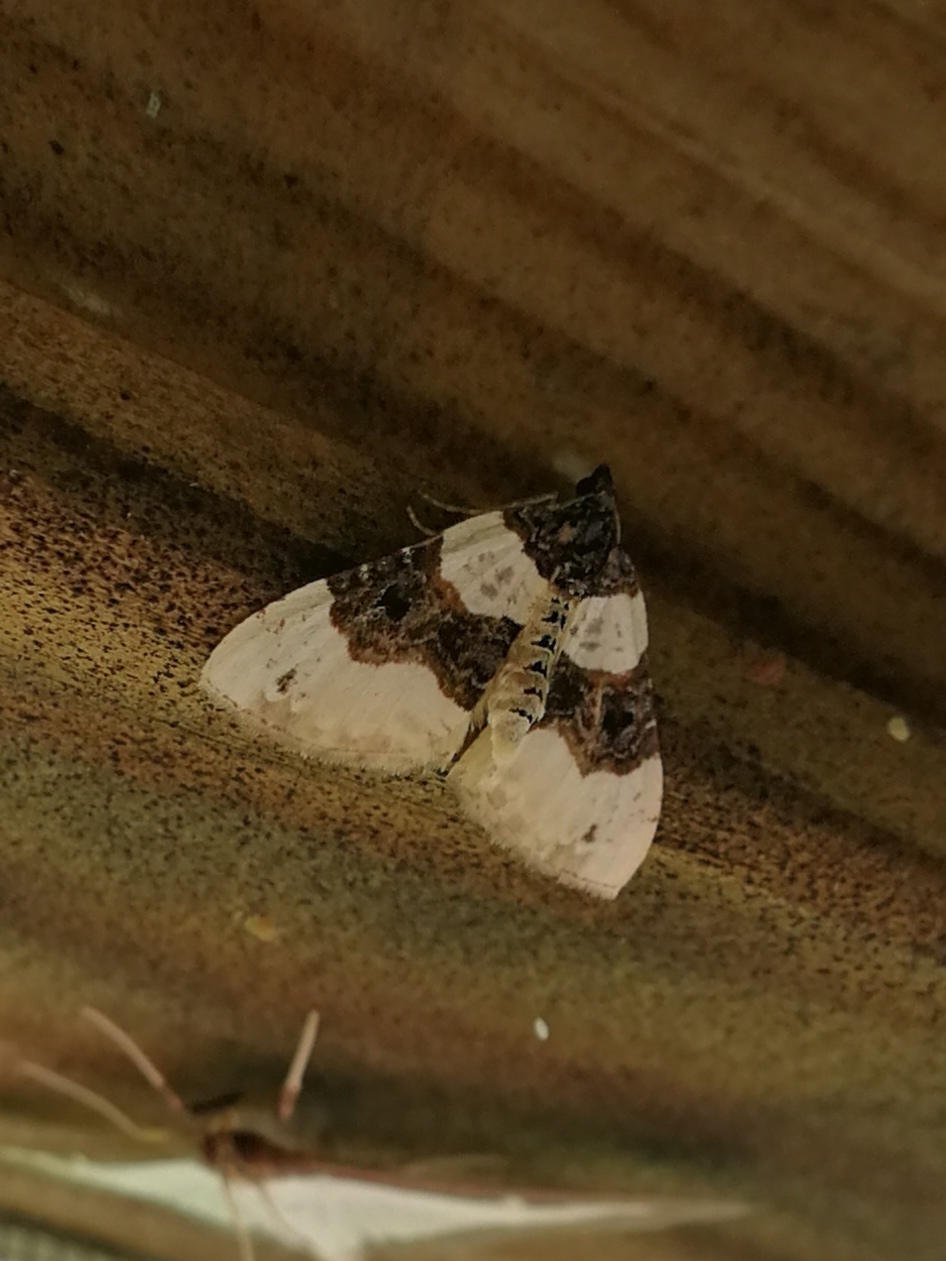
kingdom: Animalia
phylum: Arthropoda
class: Insecta
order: Lepidoptera
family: Geometridae
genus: Cosmorhoe
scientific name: Cosmorhoe ocellata
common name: Purple bar
